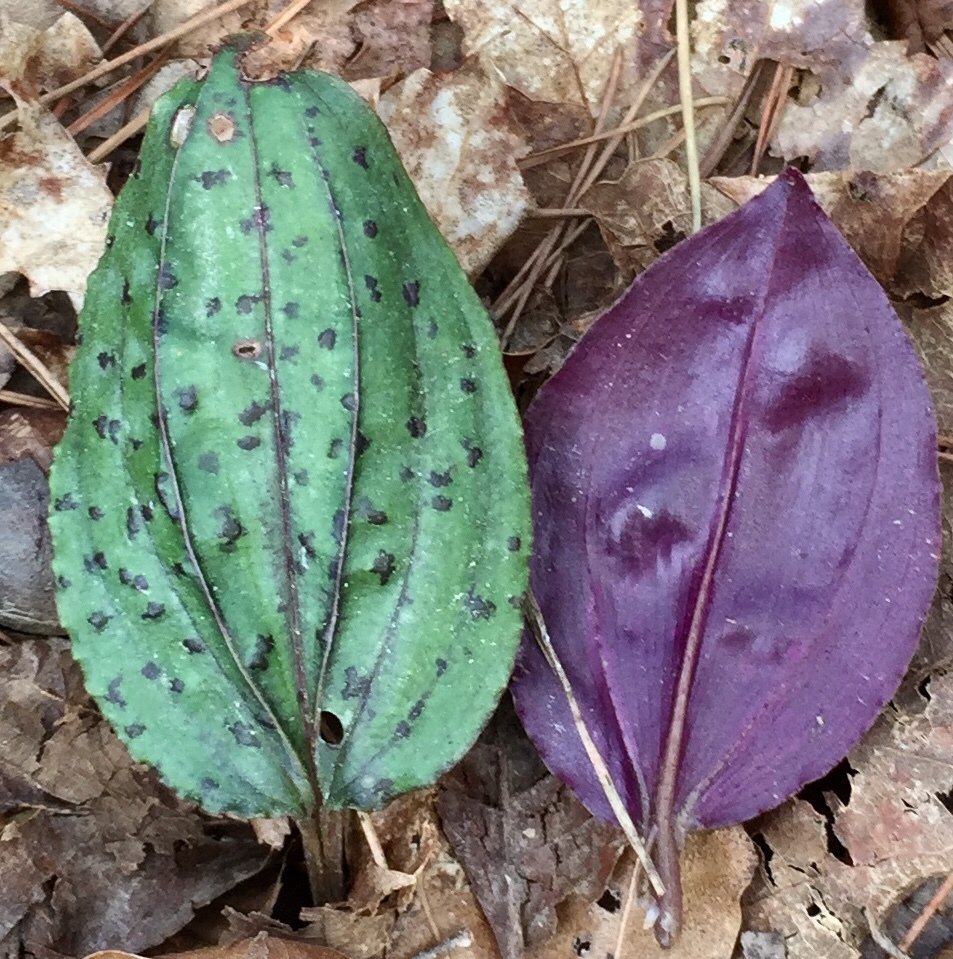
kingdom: Plantae
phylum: Tracheophyta
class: Liliopsida
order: Asparagales
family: Orchidaceae
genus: Tipularia
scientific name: Tipularia discolor
